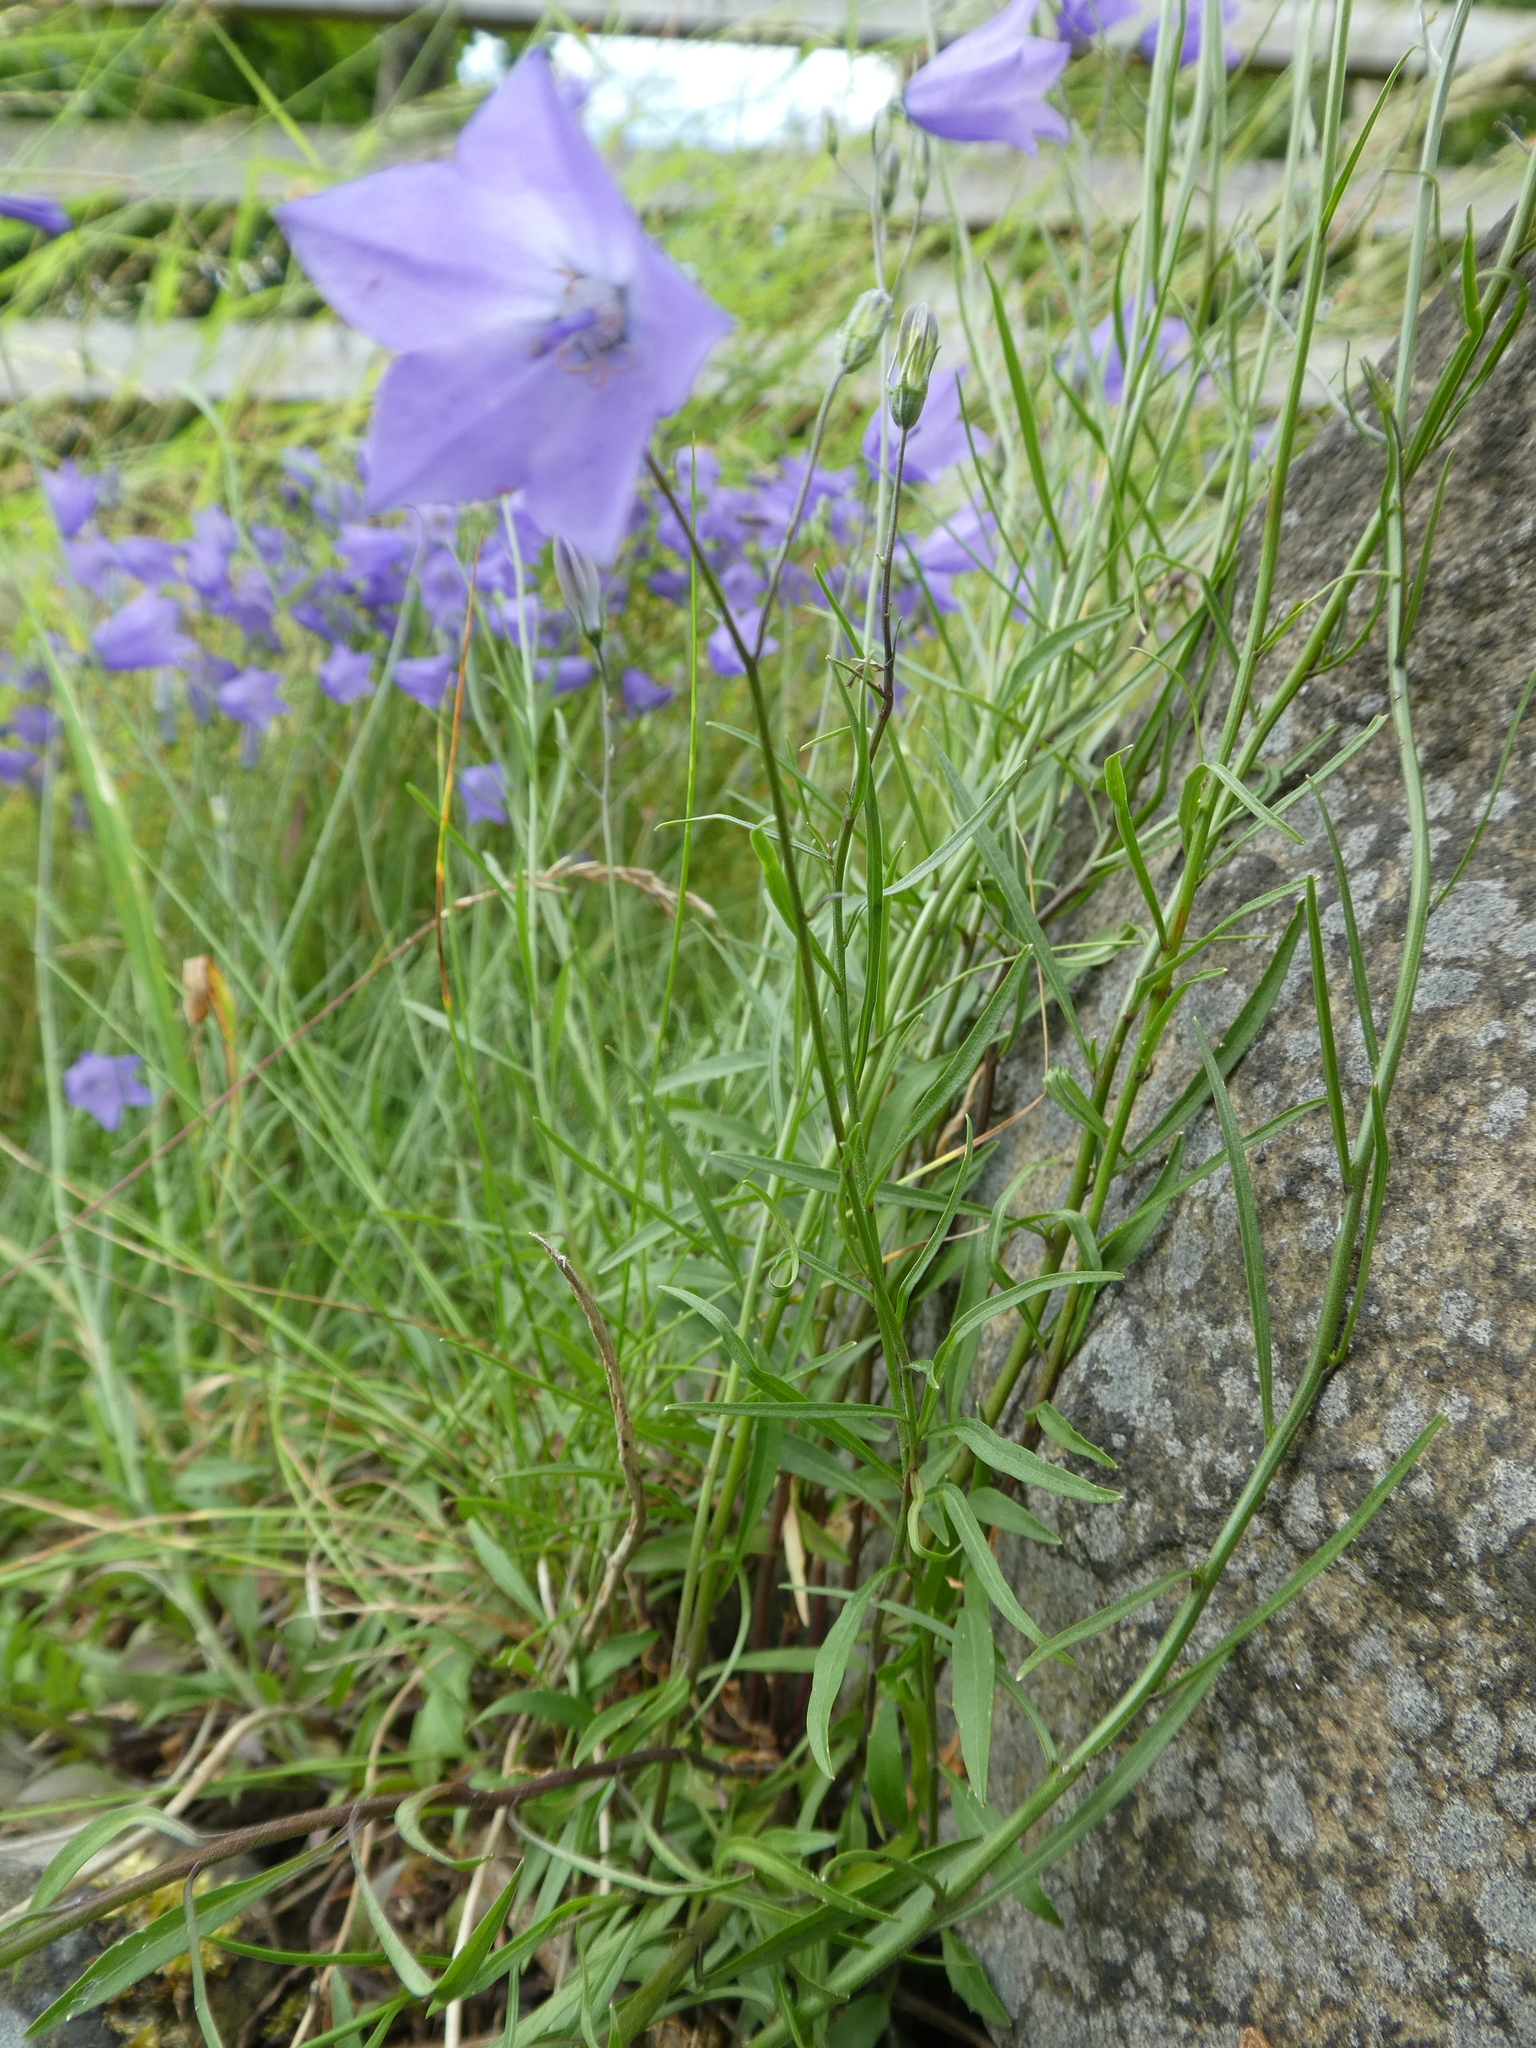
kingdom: Plantae
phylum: Tracheophyta
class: Magnoliopsida
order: Asterales
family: Campanulaceae
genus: Campanula
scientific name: Campanula rotundifolia
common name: Harebell
